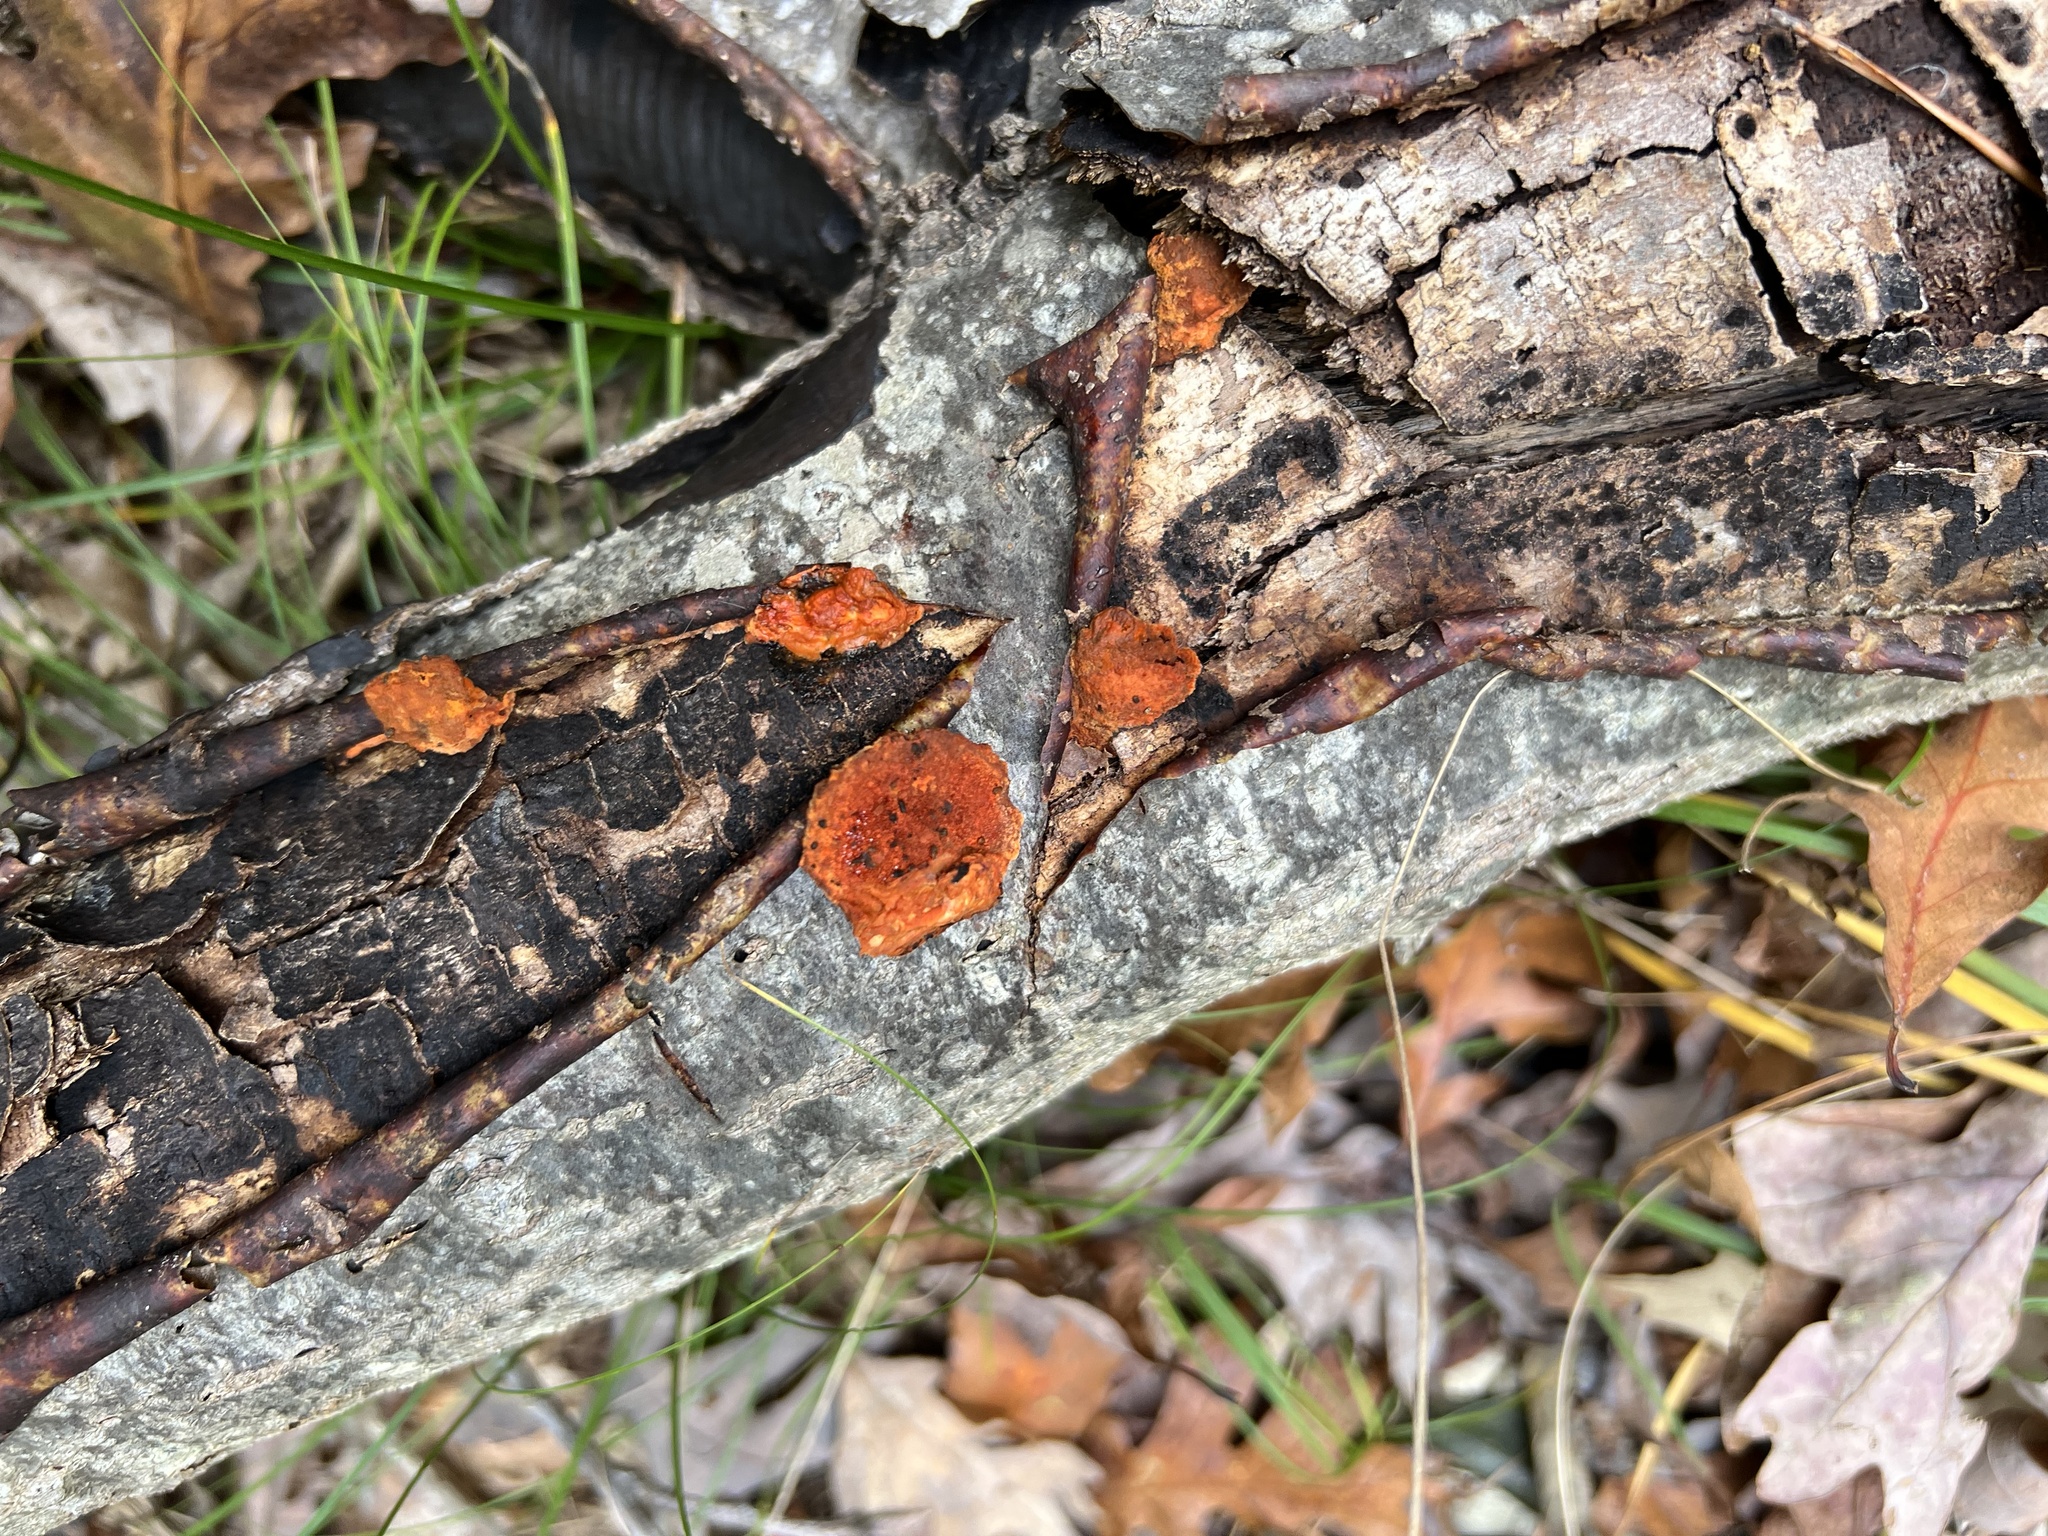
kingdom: Fungi
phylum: Basidiomycota
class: Agaricomycetes
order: Polyporales
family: Polyporaceae
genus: Trametes
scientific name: Trametes cinnabarina
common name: Northern cinnabar polypore
